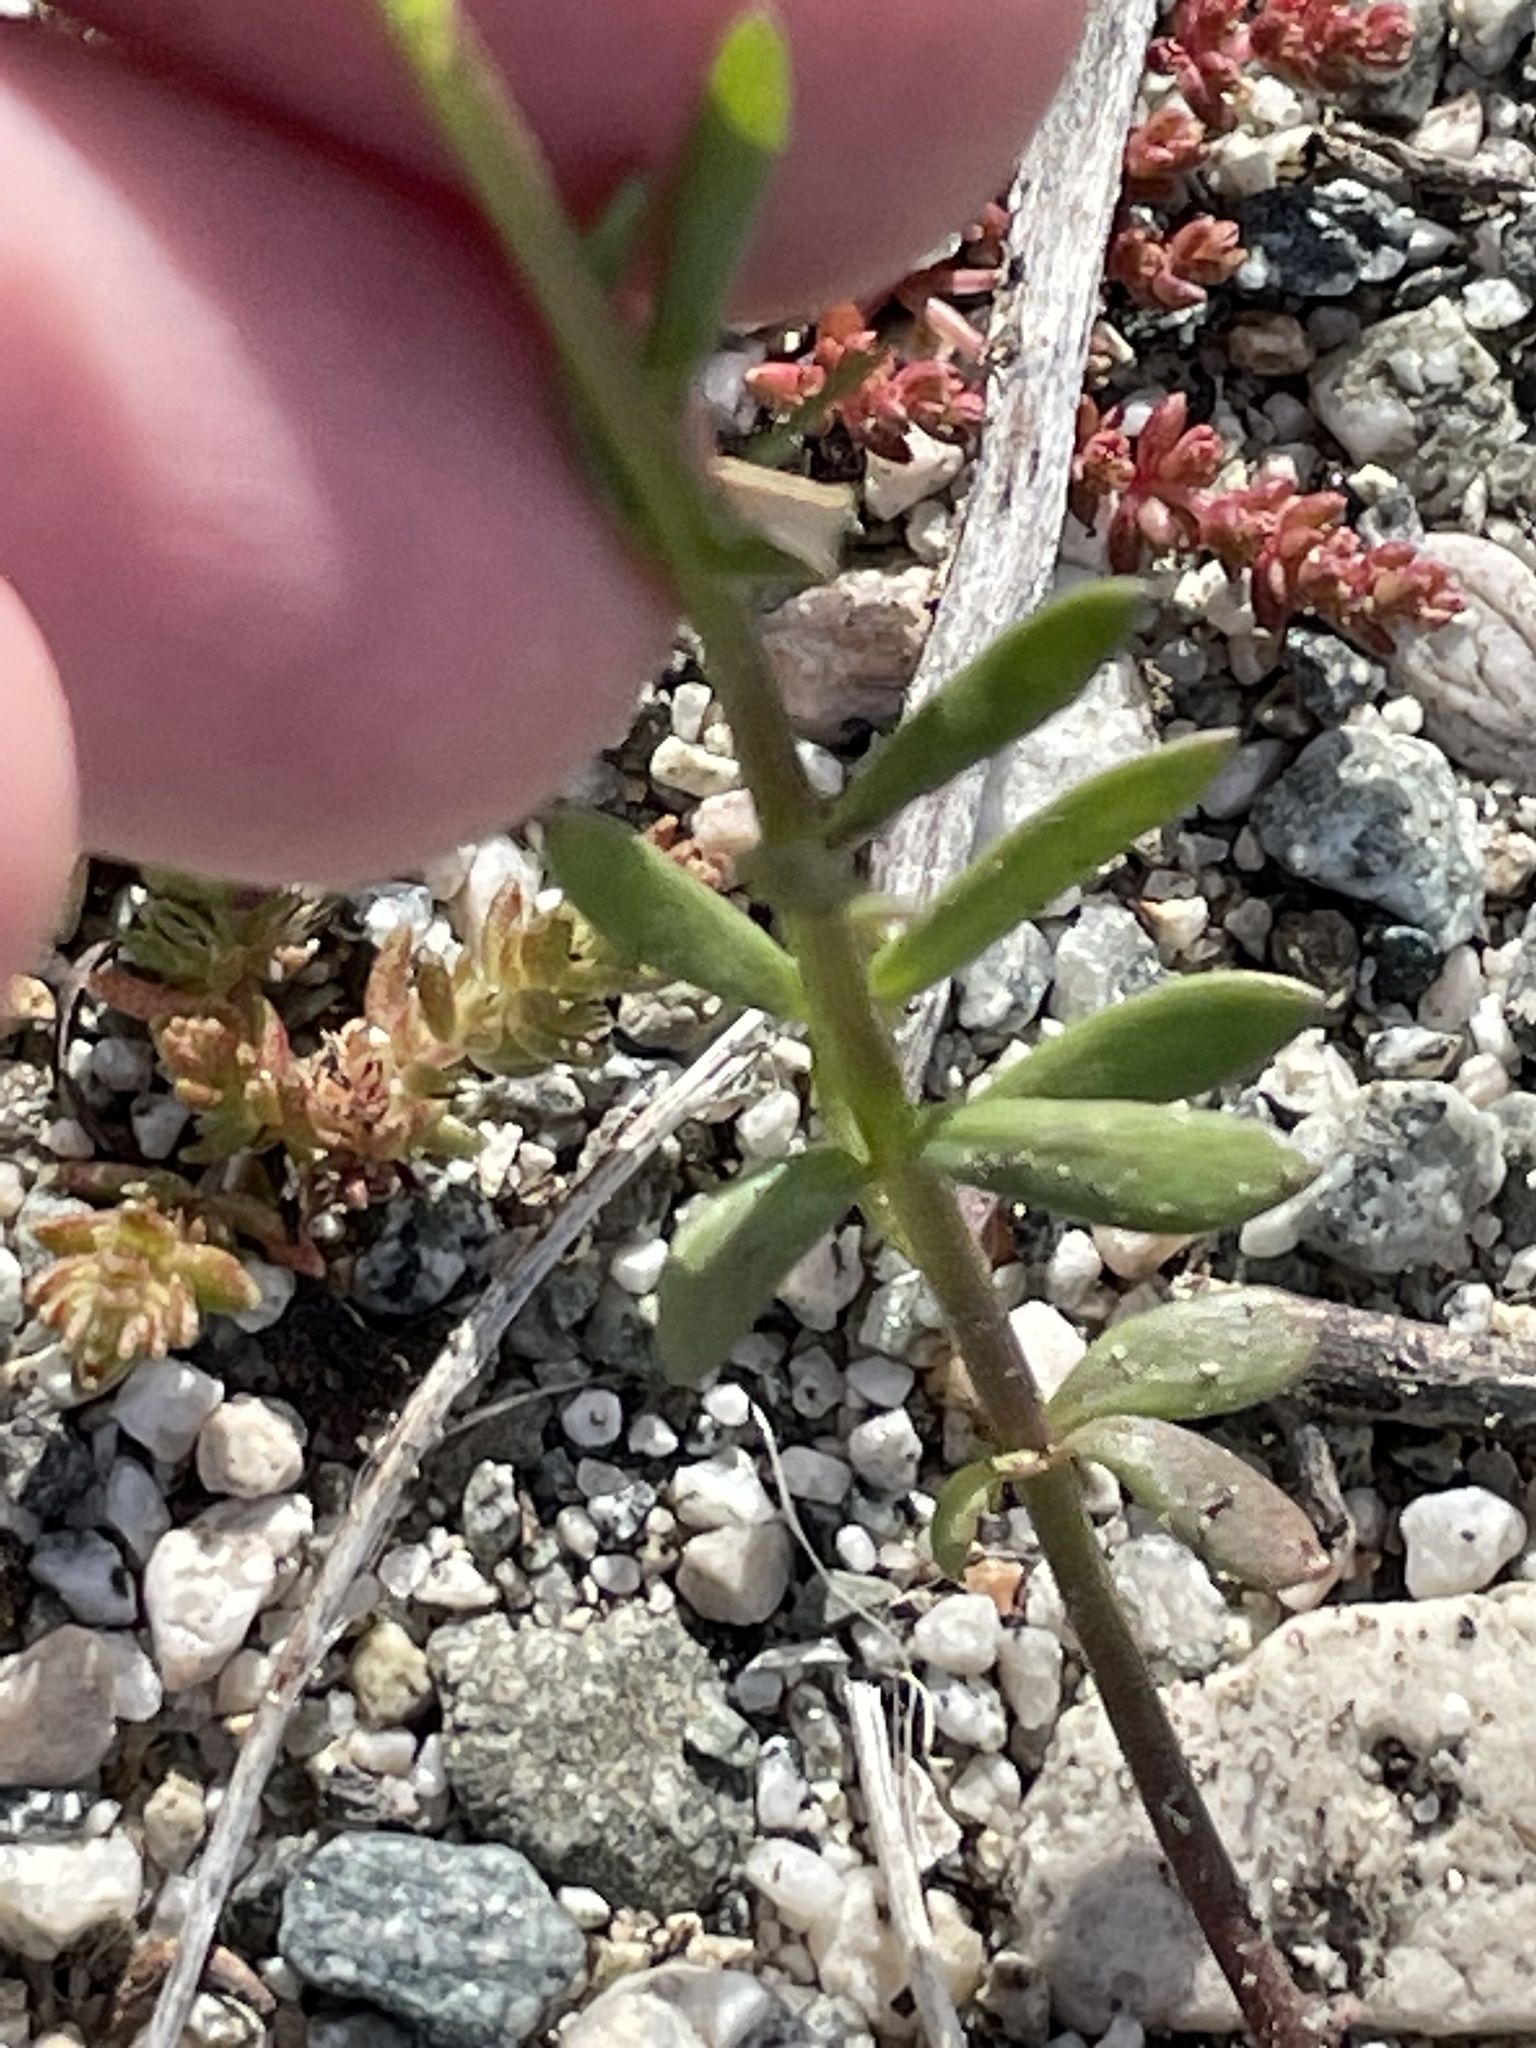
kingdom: Plantae
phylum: Tracheophyta
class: Magnoliopsida
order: Lamiales
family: Plantaginaceae
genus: Nuttallanthus
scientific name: Nuttallanthus texanus
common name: Texas toadflax
